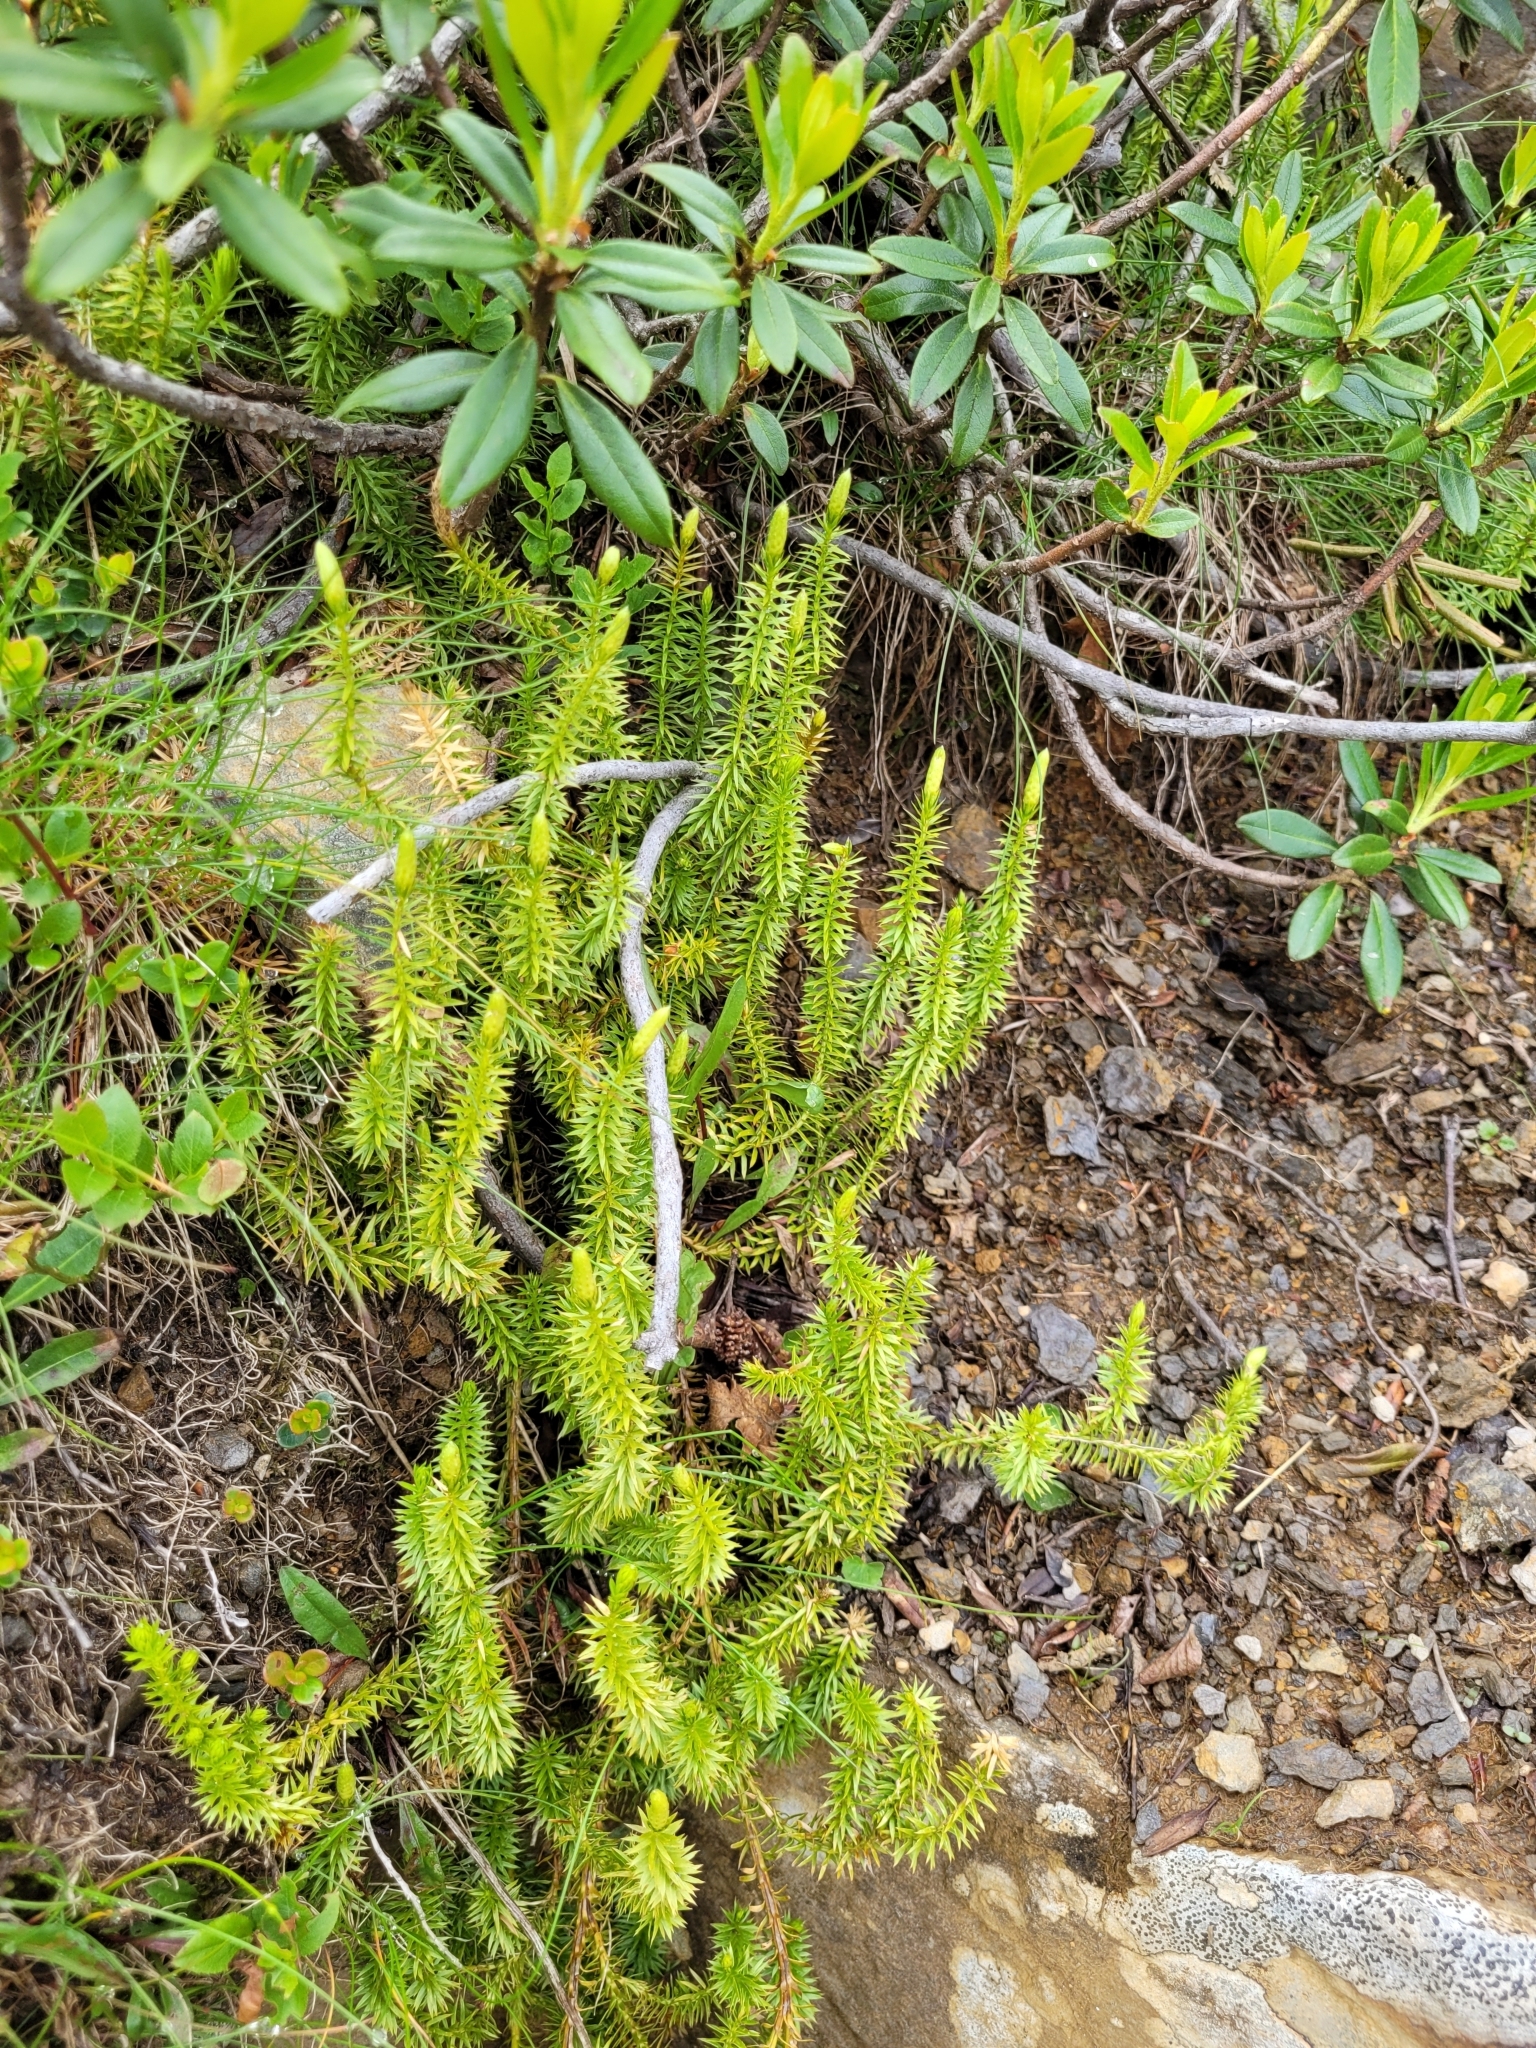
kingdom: Plantae
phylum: Tracheophyta
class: Lycopodiopsida
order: Lycopodiales
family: Lycopodiaceae
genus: Spinulum
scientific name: Spinulum annotinum
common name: Interrupted club-moss
